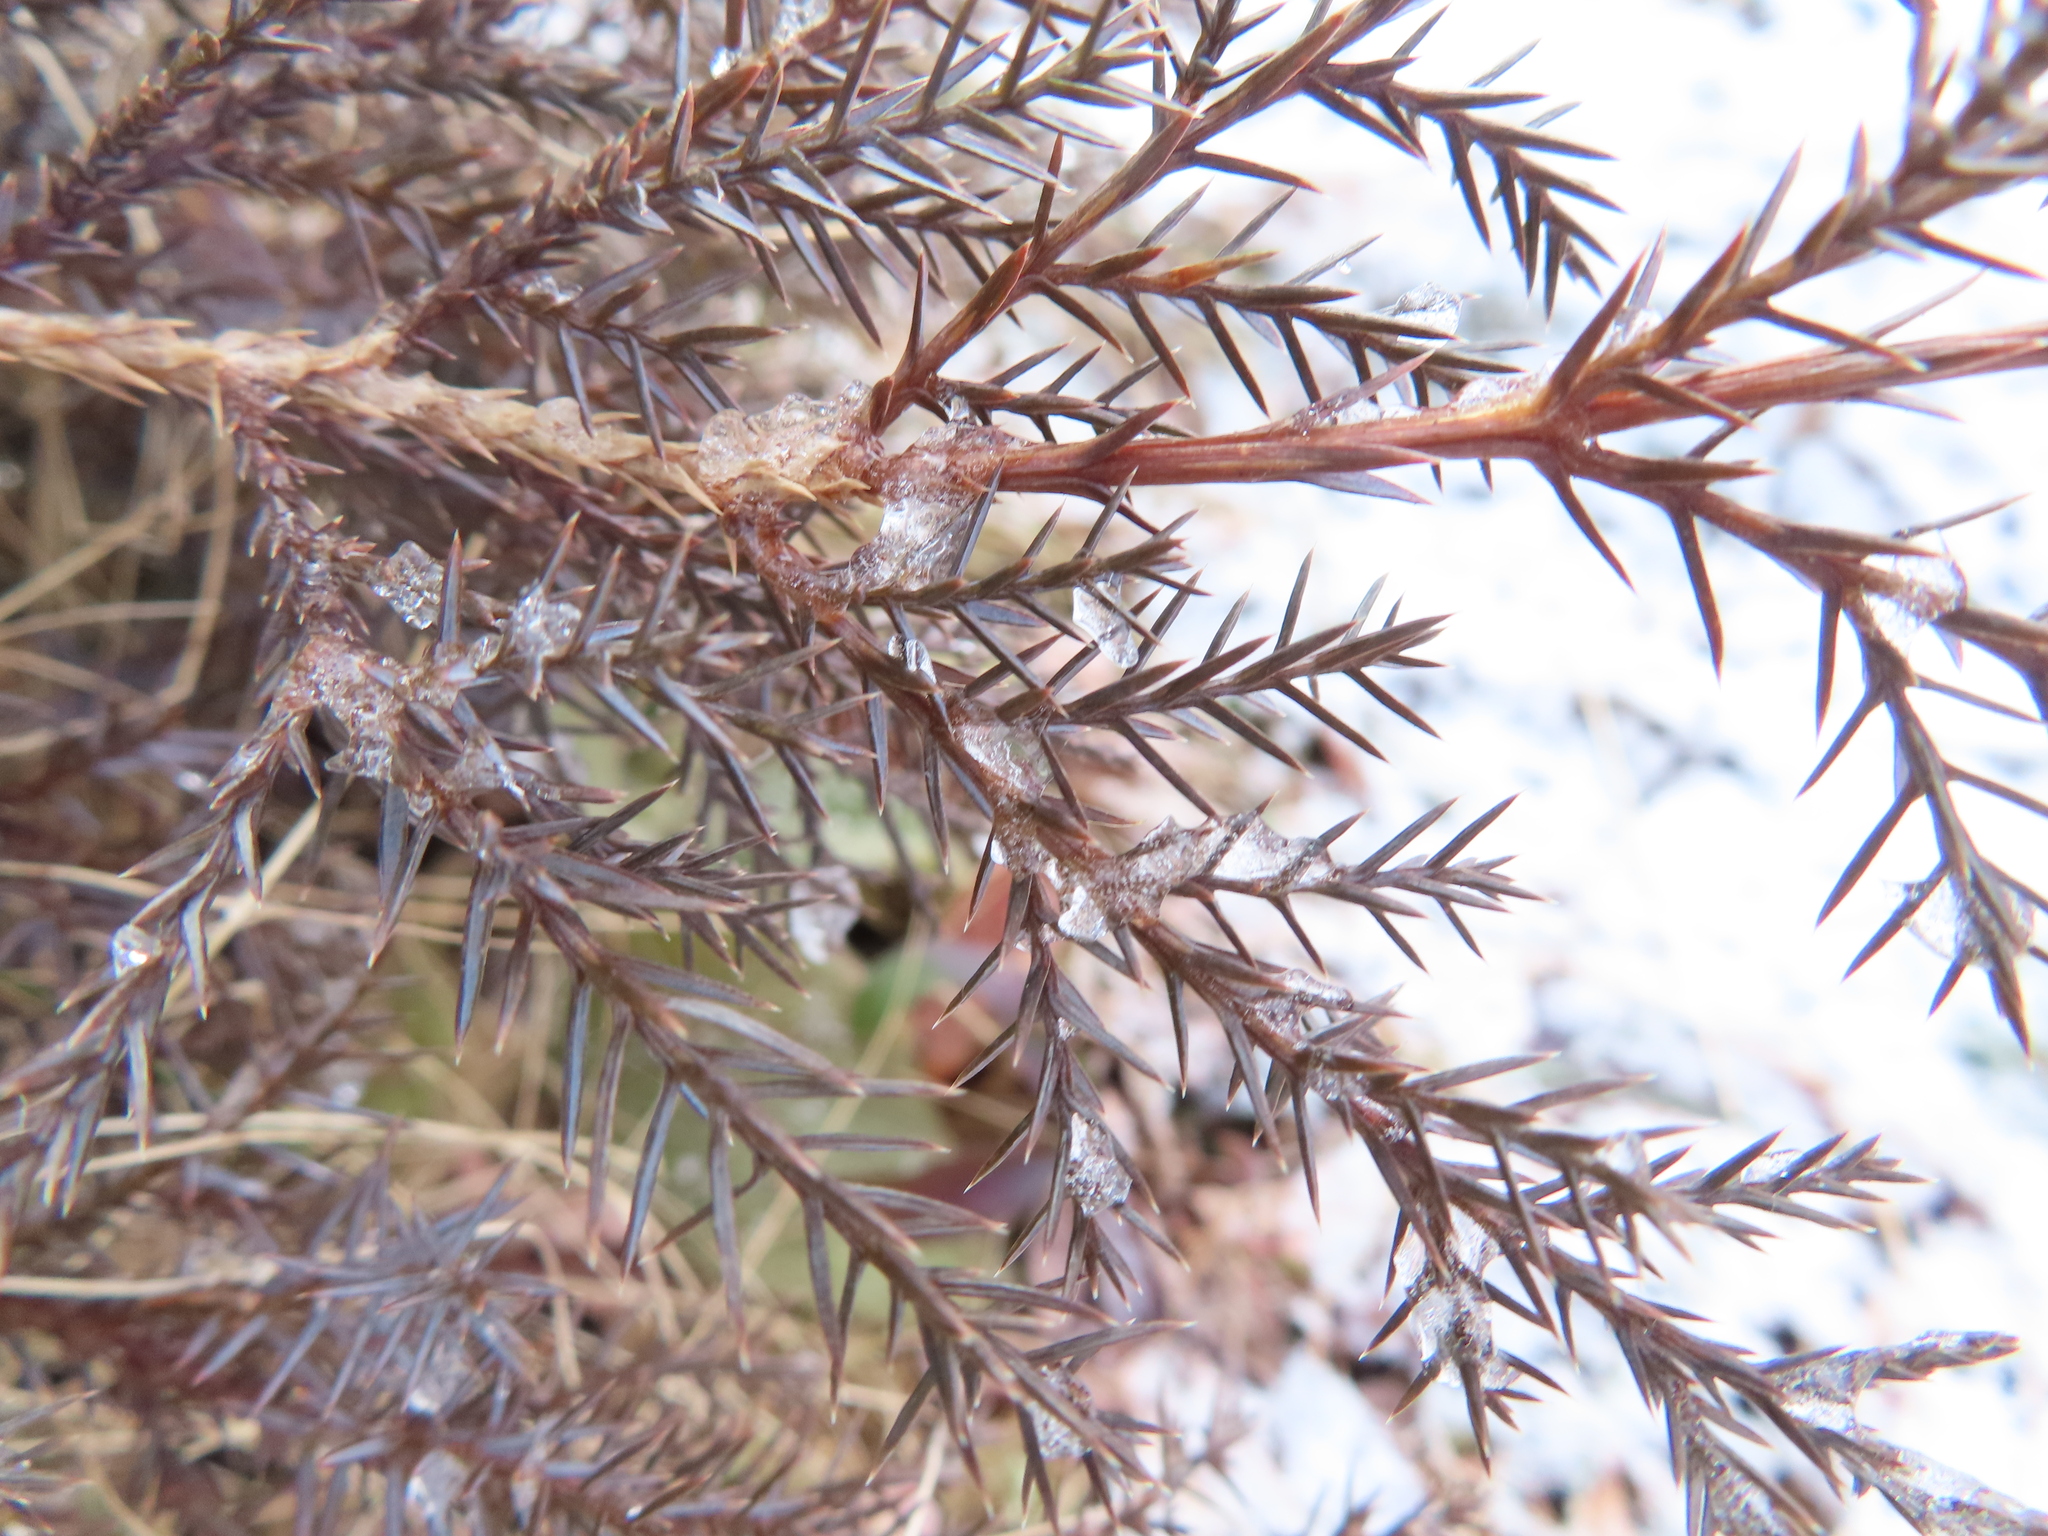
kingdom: Plantae
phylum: Tracheophyta
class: Pinopsida
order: Pinales
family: Cupressaceae
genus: Juniperus
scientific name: Juniperus virginiana
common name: Red juniper
